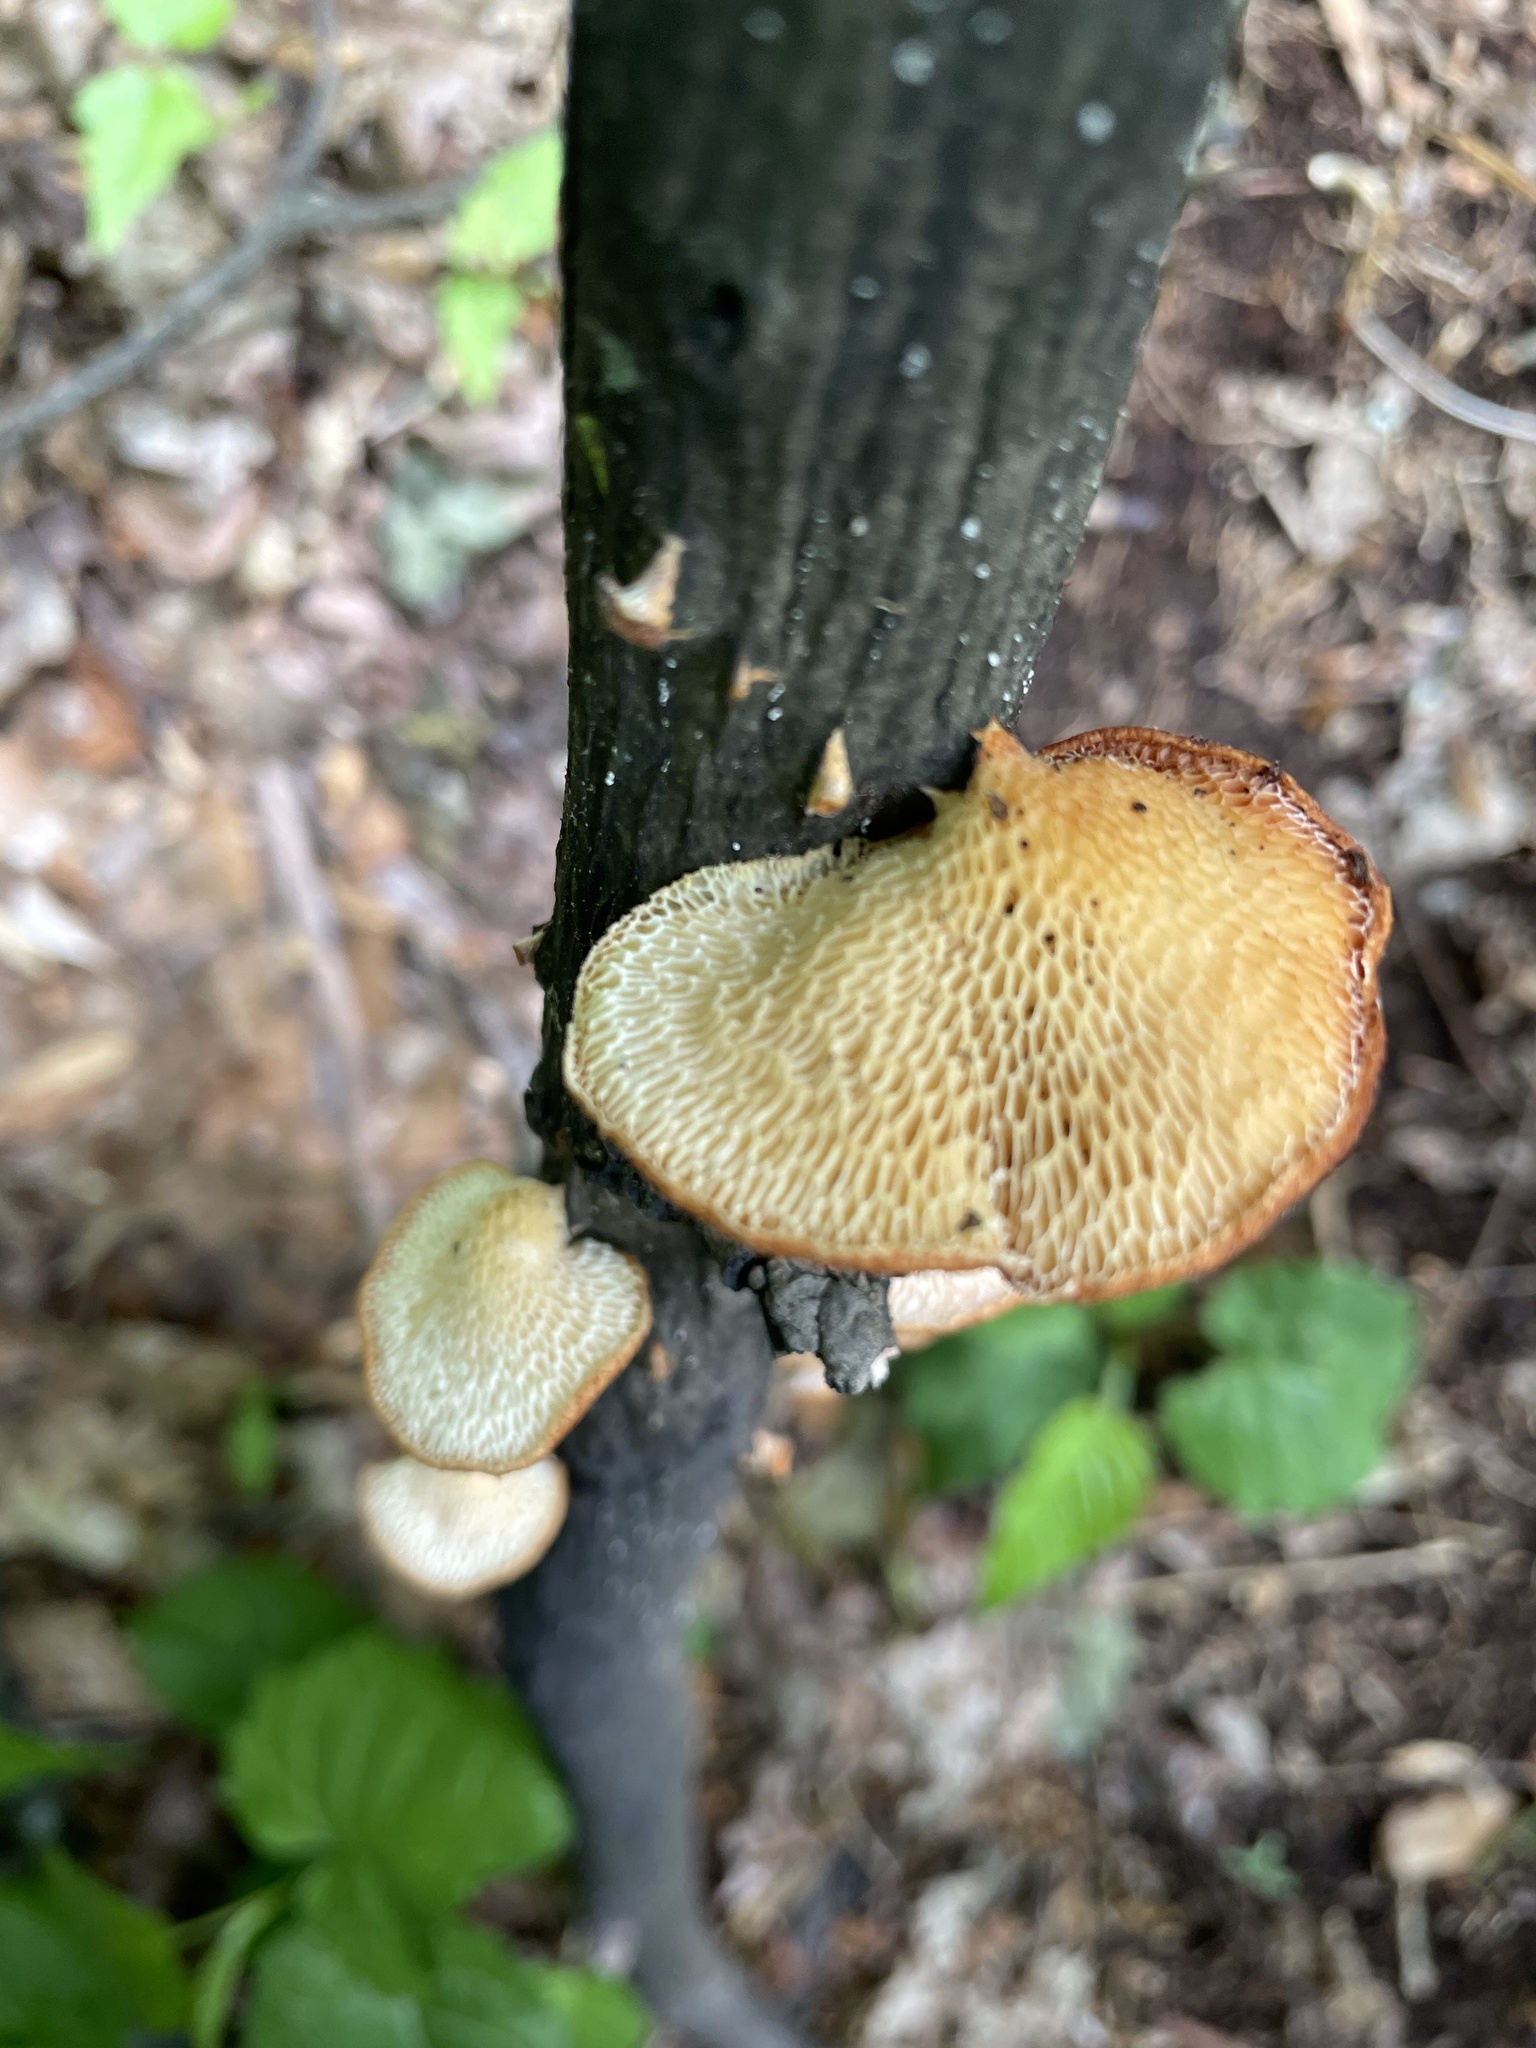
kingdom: Fungi
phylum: Basidiomycota
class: Agaricomycetes
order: Polyporales
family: Polyporaceae
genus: Neofavolus
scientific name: Neofavolus alveolaris
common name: Hexagonal-pored polypore
